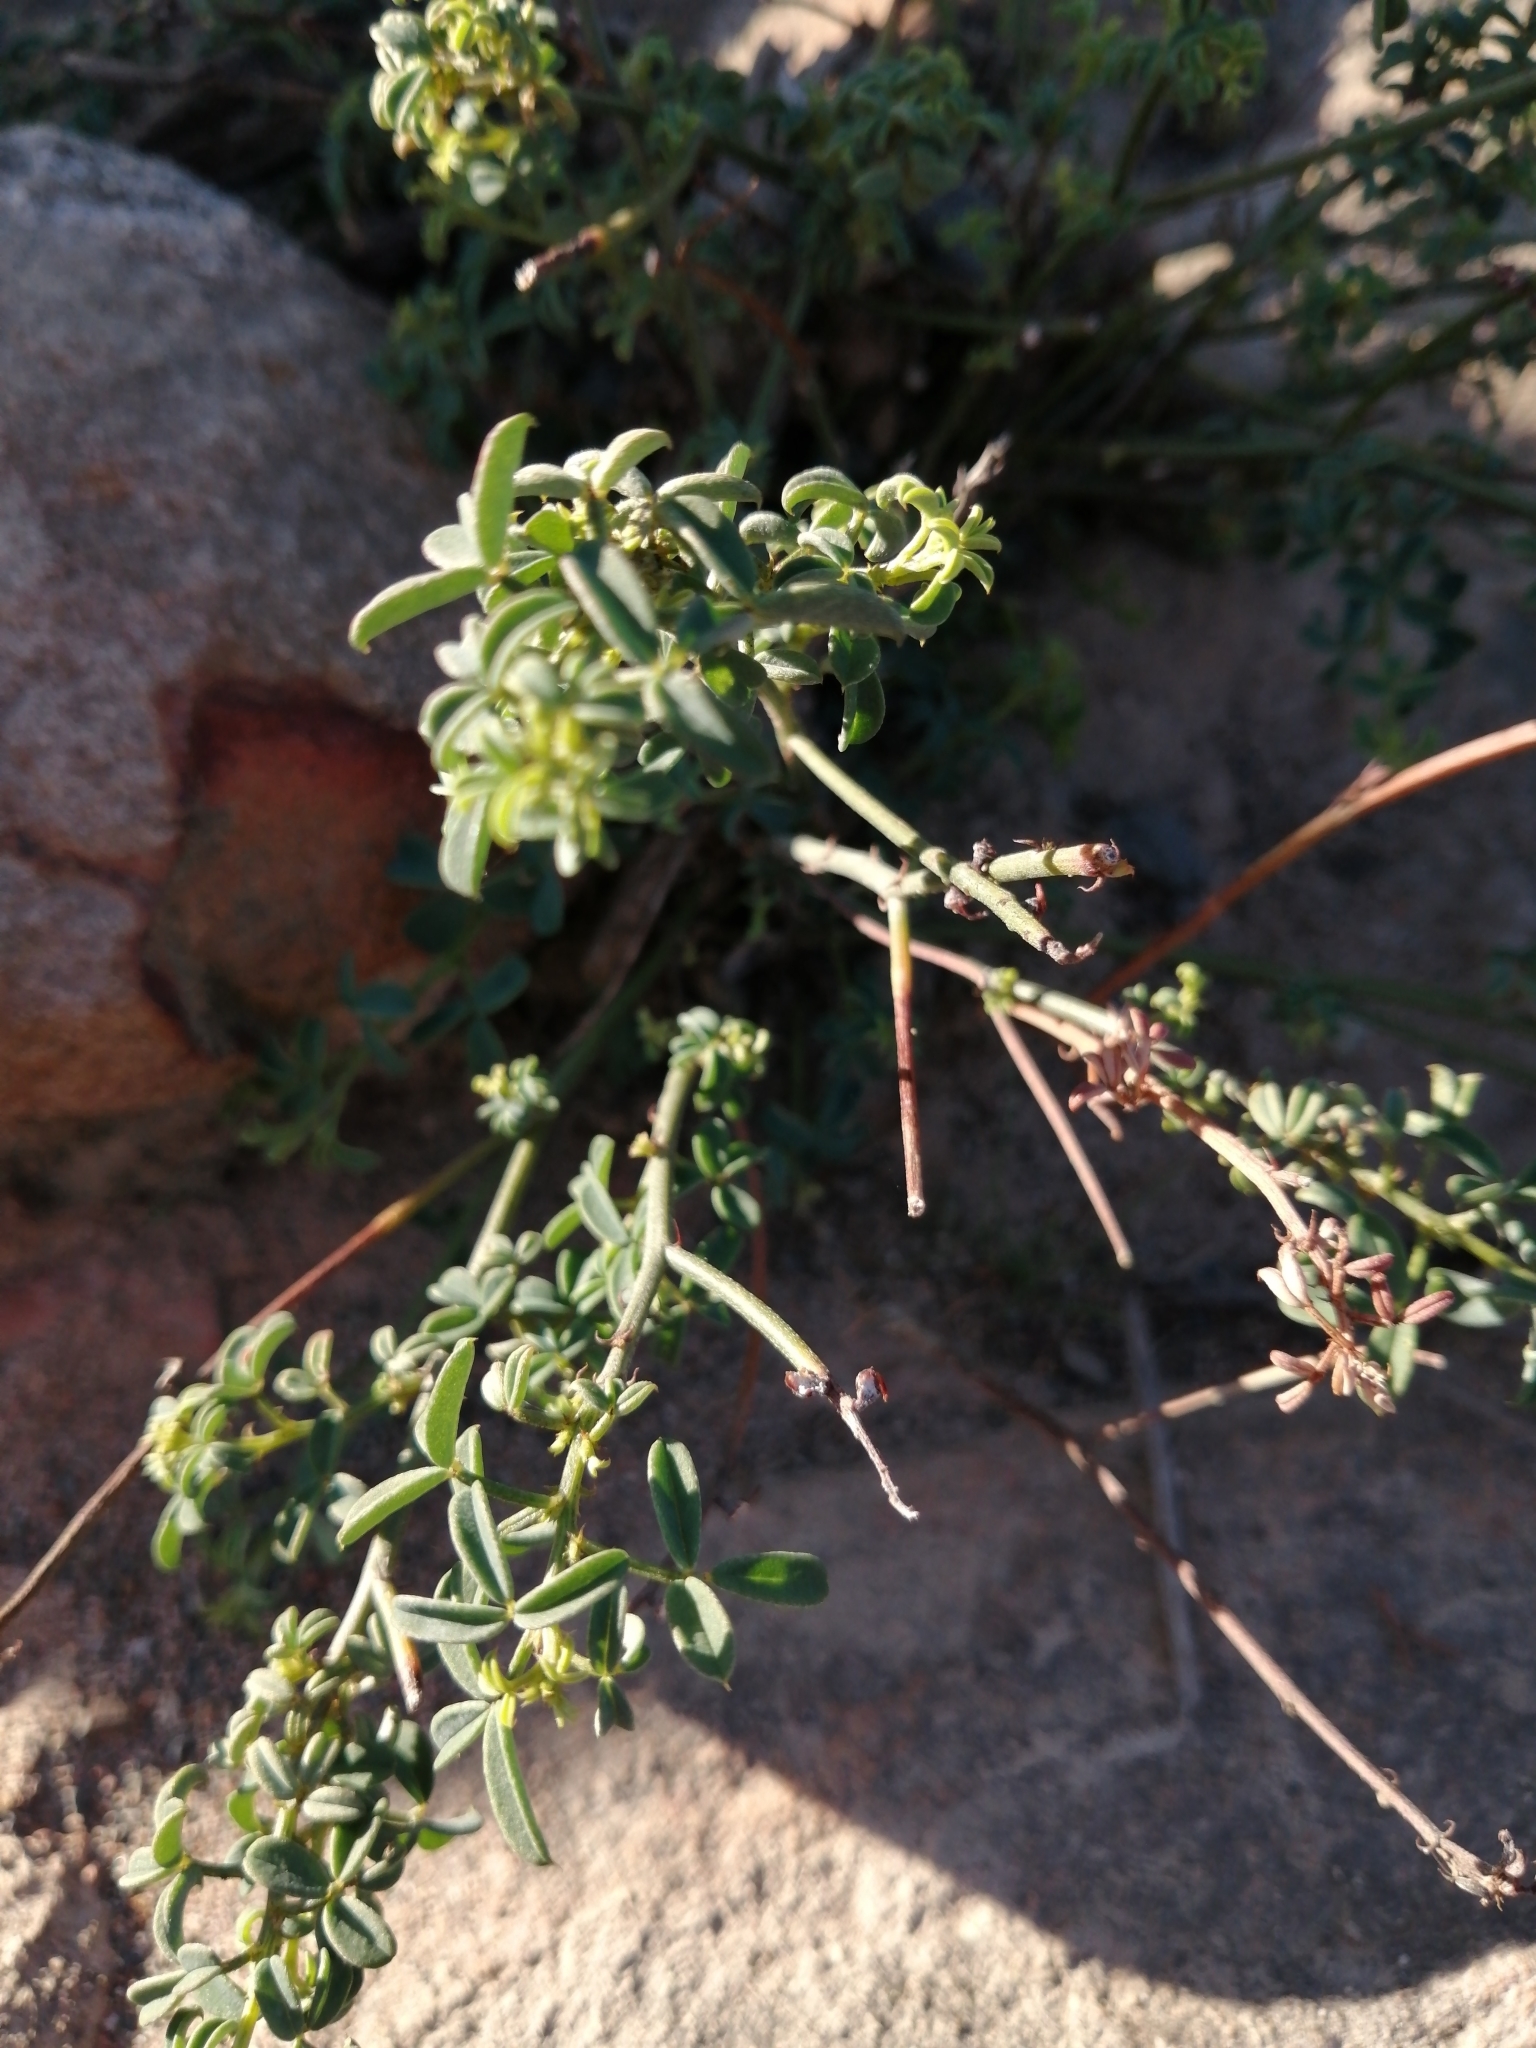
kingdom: Plantae
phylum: Tracheophyta
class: Magnoliopsida
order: Fabales
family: Fabaceae
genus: Indigofera
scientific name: Indigofera heterophylla
